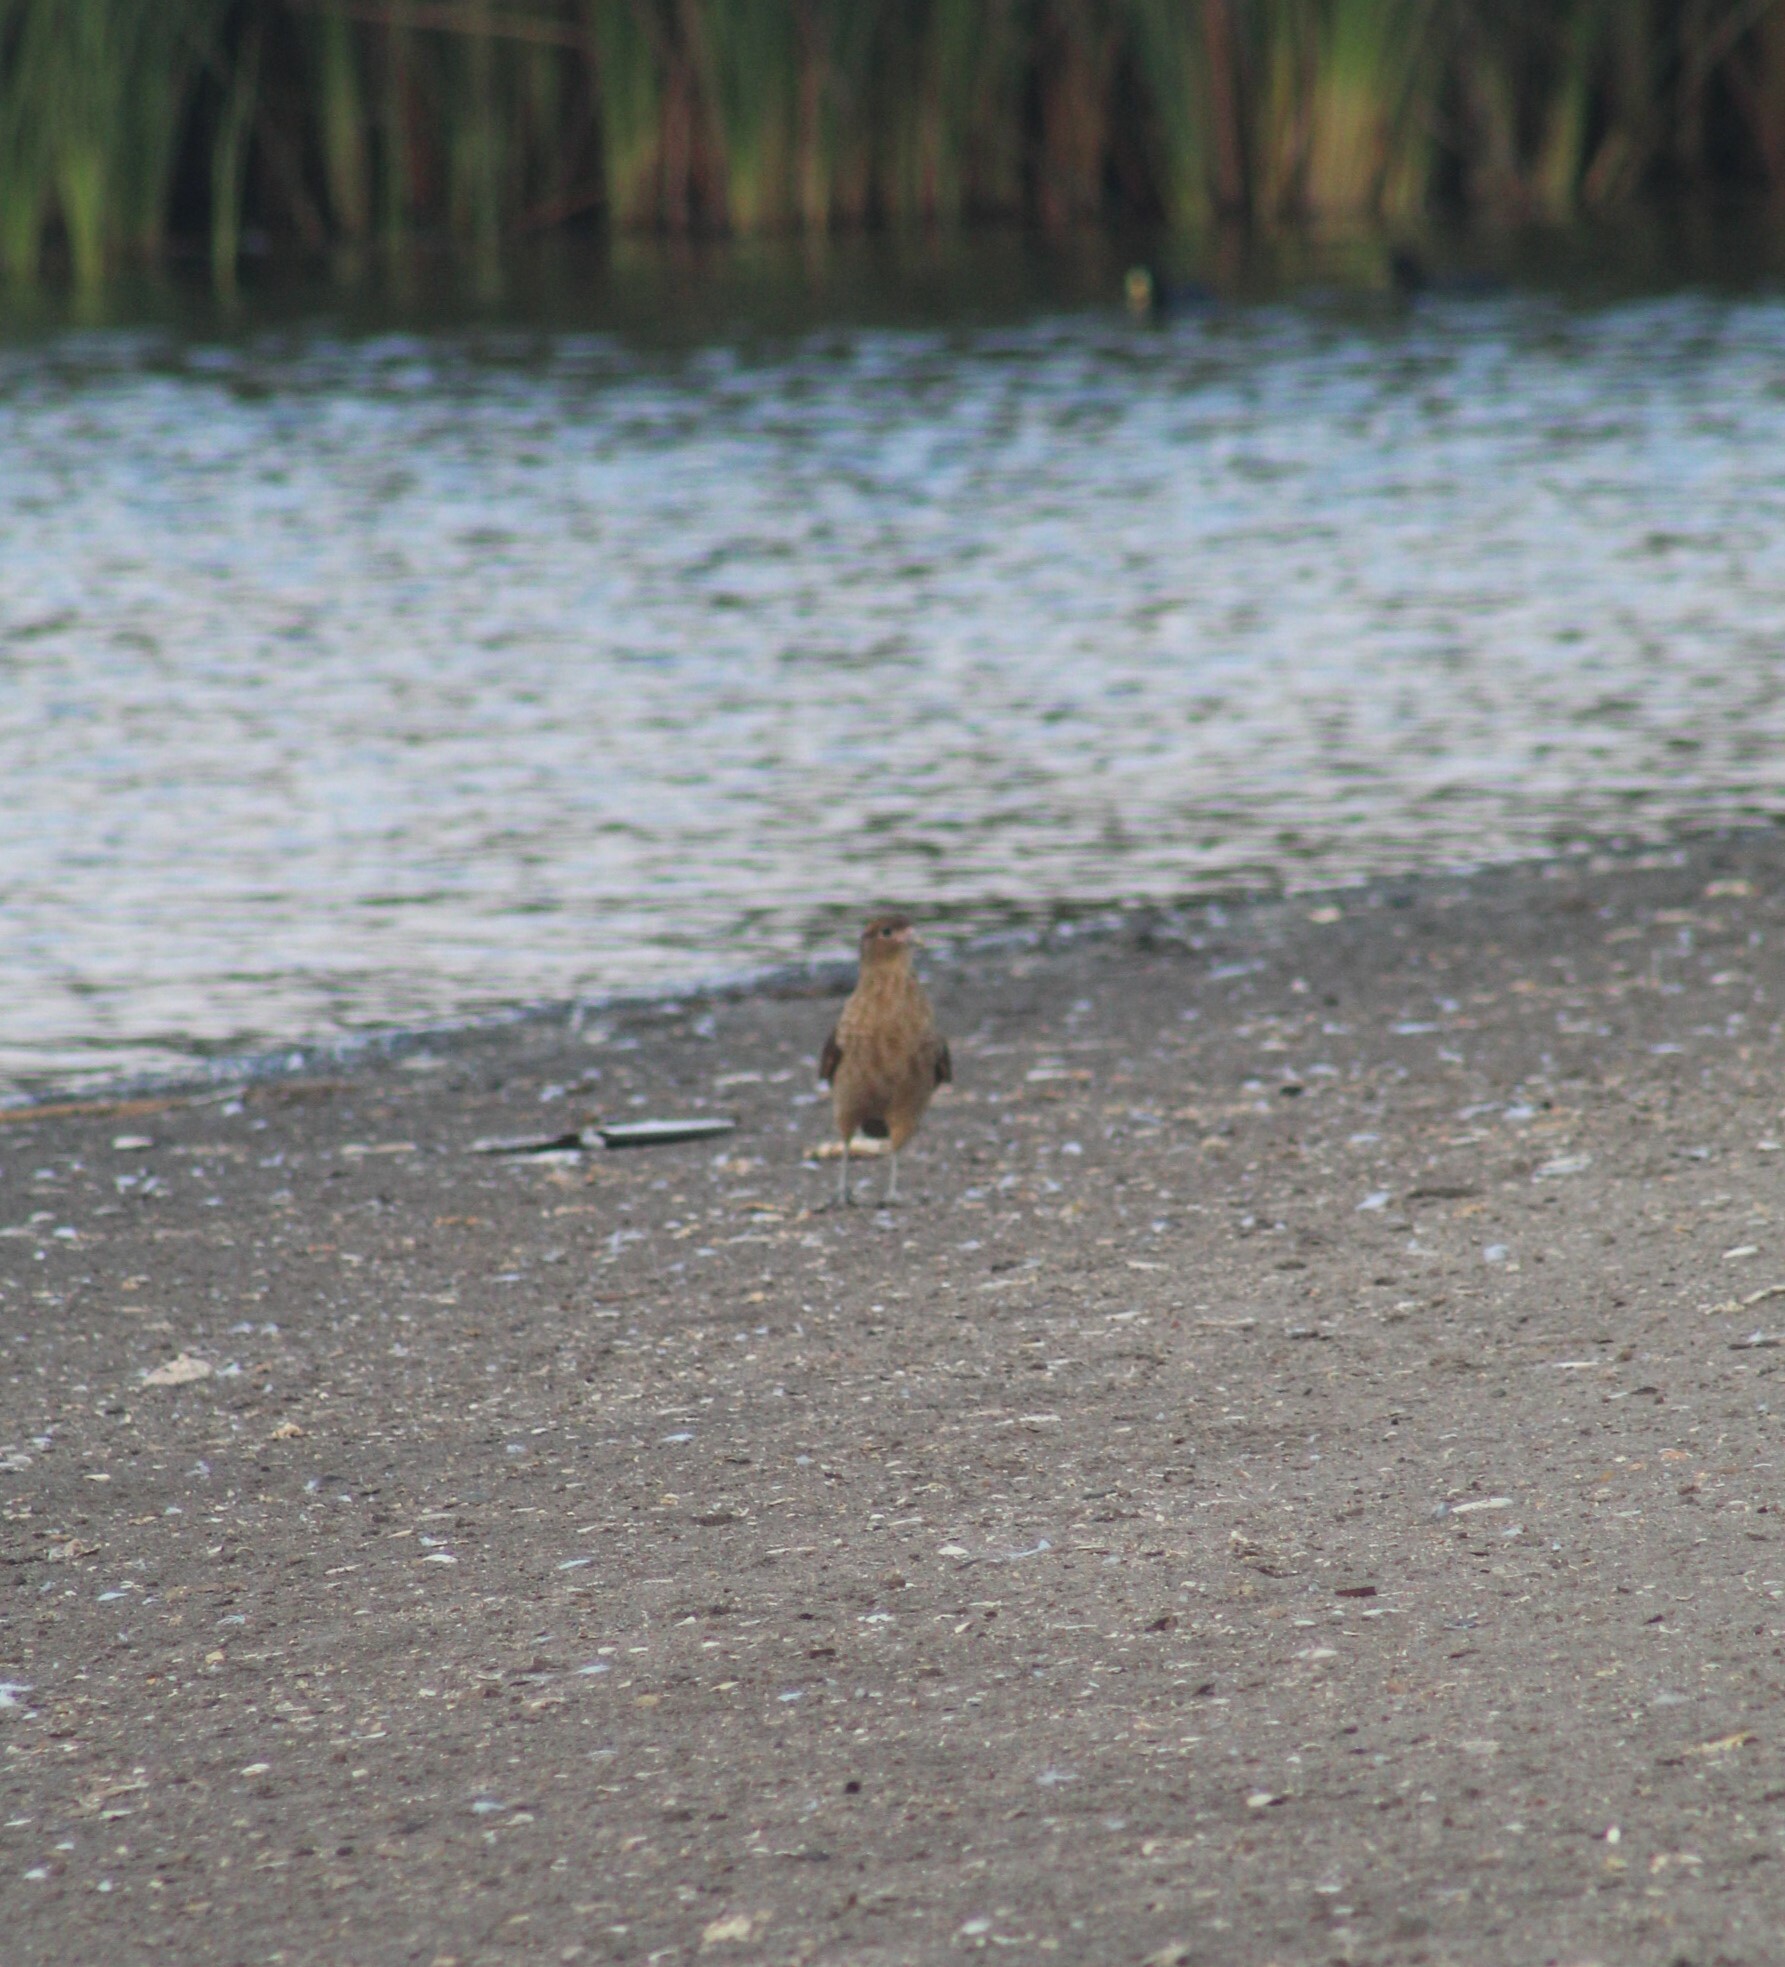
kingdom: Animalia
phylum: Chordata
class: Aves
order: Falconiformes
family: Falconidae
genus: Daptrius
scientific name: Daptrius
